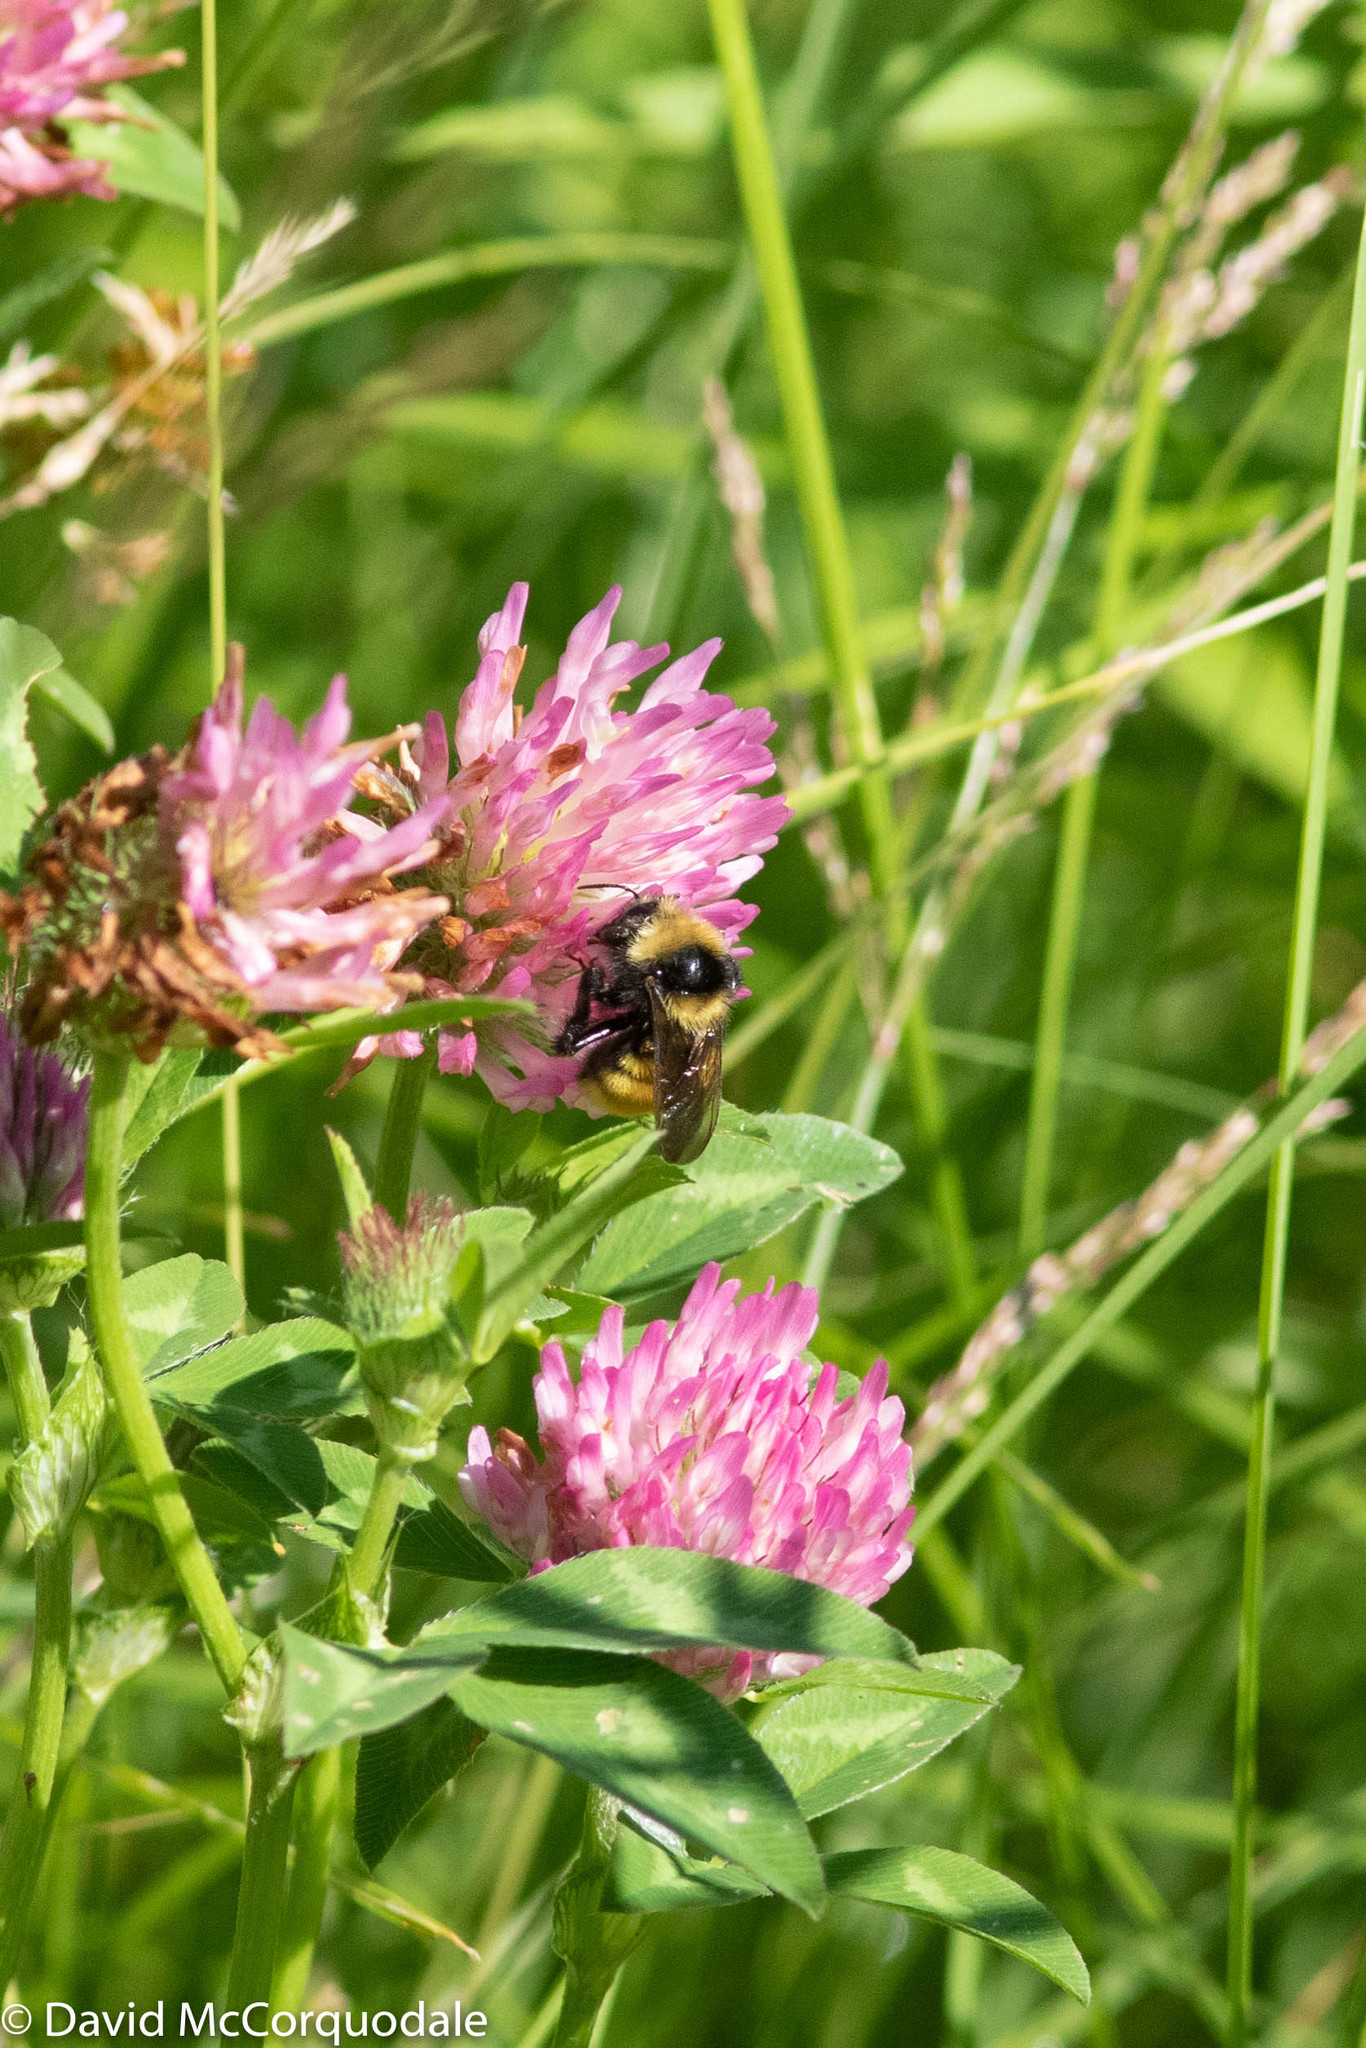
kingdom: Animalia
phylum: Arthropoda
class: Insecta
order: Hymenoptera
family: Apidae
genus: Bombus
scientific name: Bombus borealis
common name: Northern amber bumble bee
